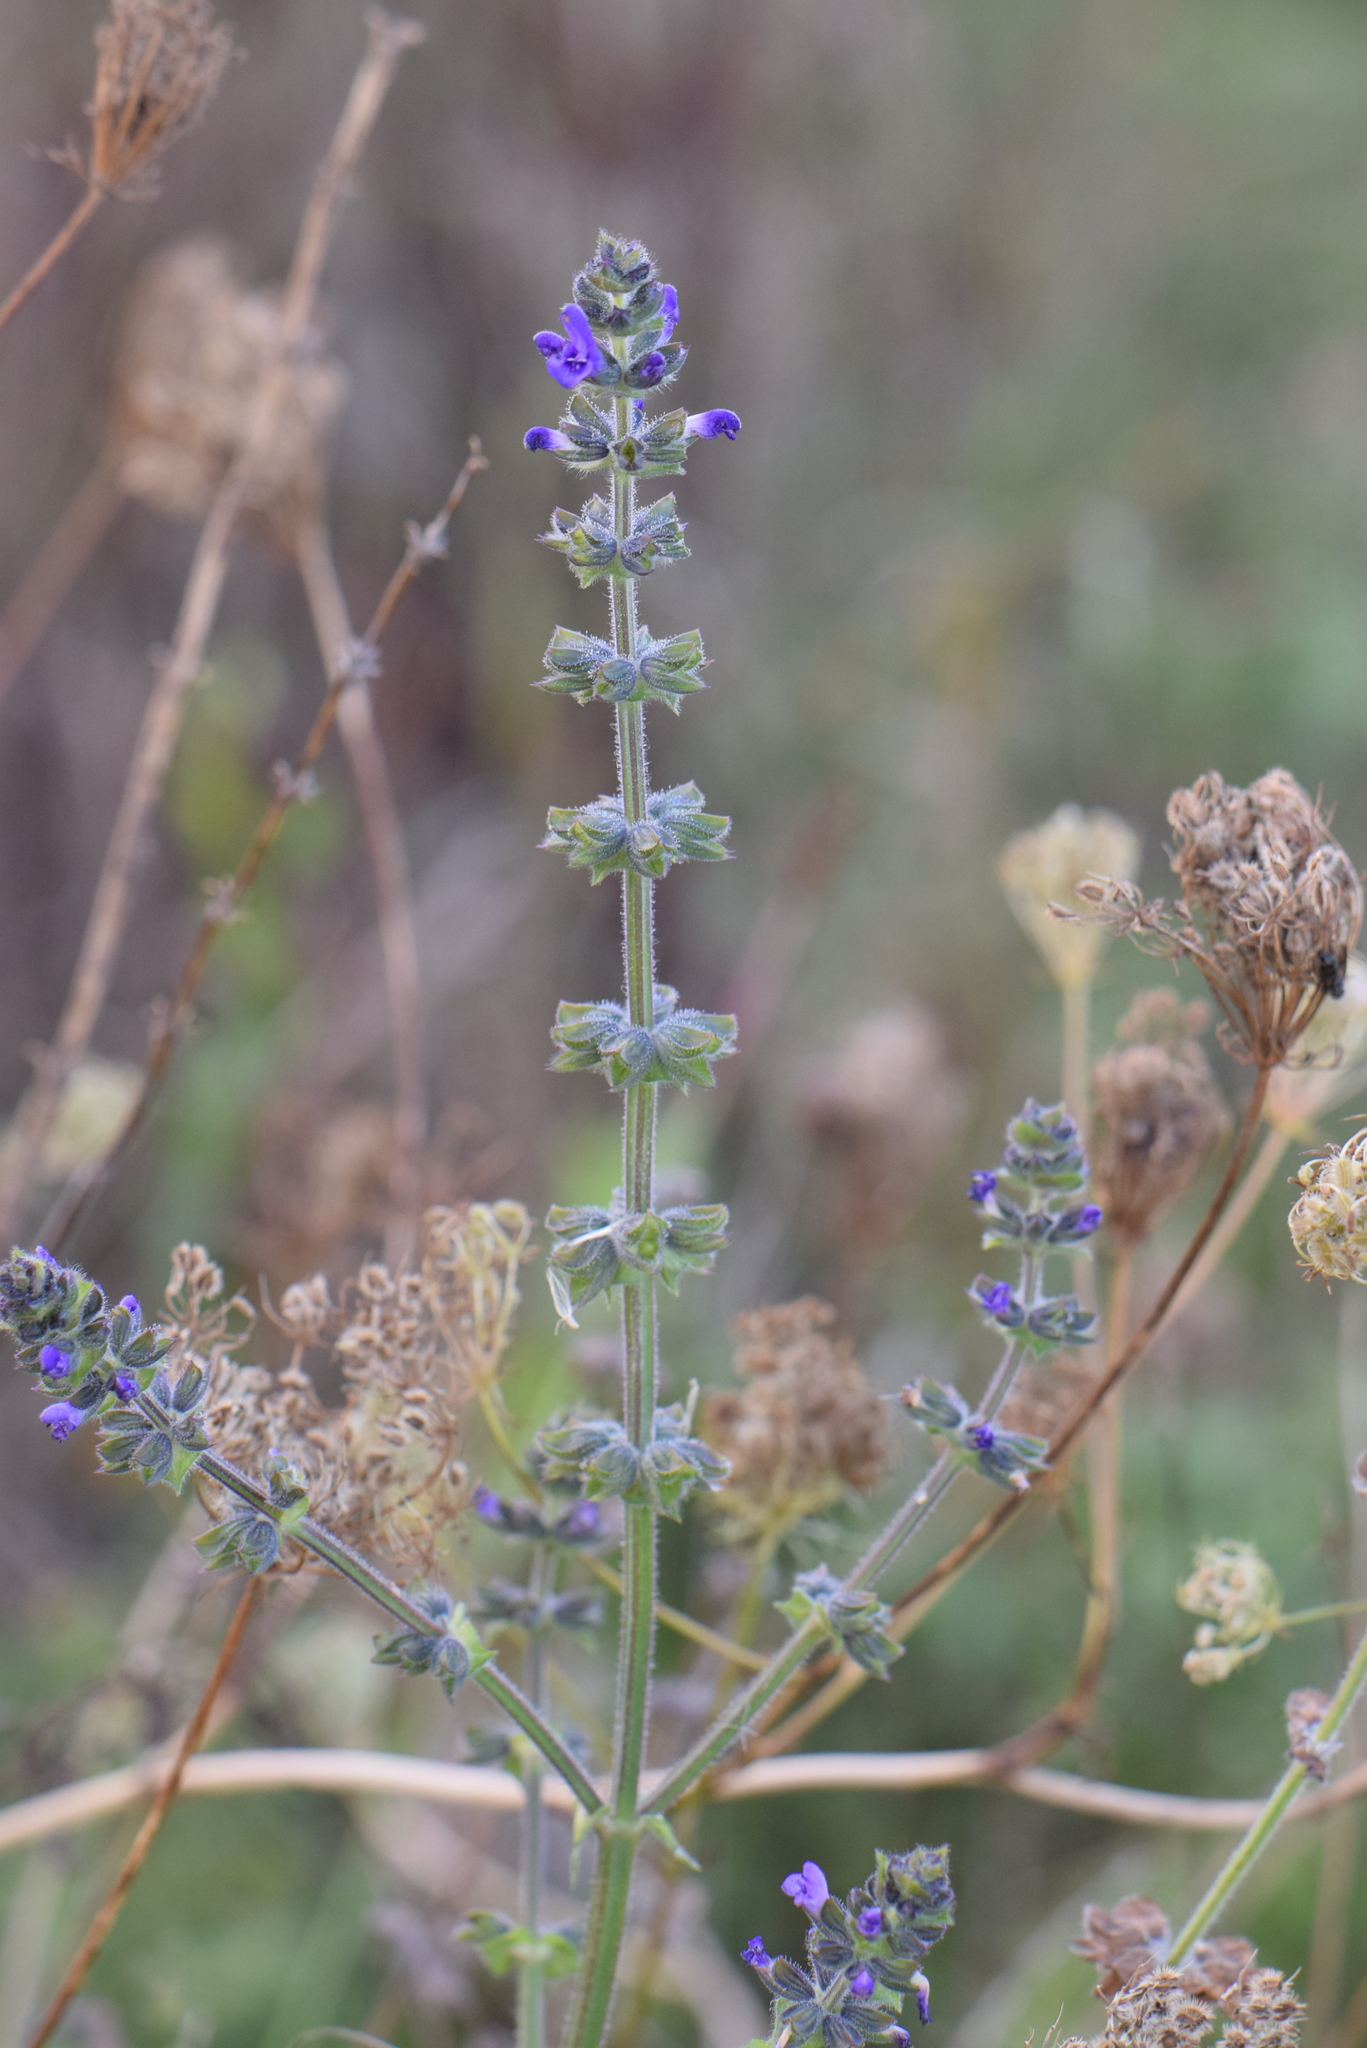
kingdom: Plantae
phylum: Tracheophyta
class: Magnoliopsida
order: Lamiales
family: Lamiaceae
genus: Salvia
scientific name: Salvia verbenaca
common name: Wild clary
